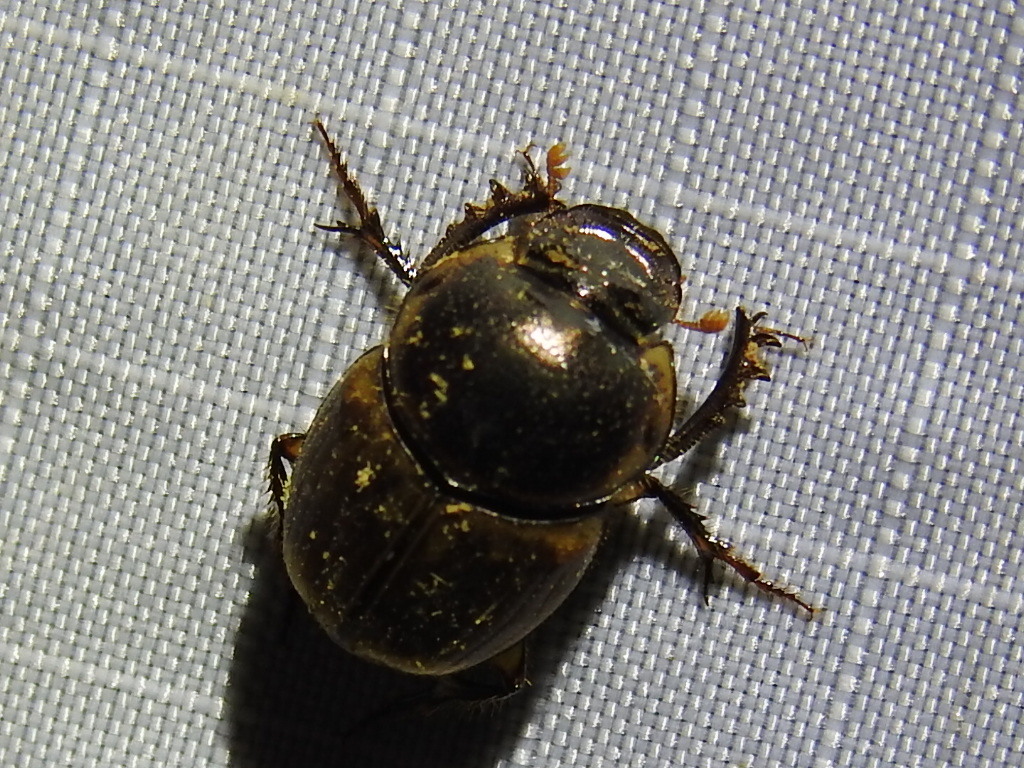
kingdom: Animalia
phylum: Arthropoda
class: Insecta
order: Coleoptera
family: Scarabaeidae
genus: Digitonthophagus
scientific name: Digitonthophagus gazella
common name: Brown dung beetle
